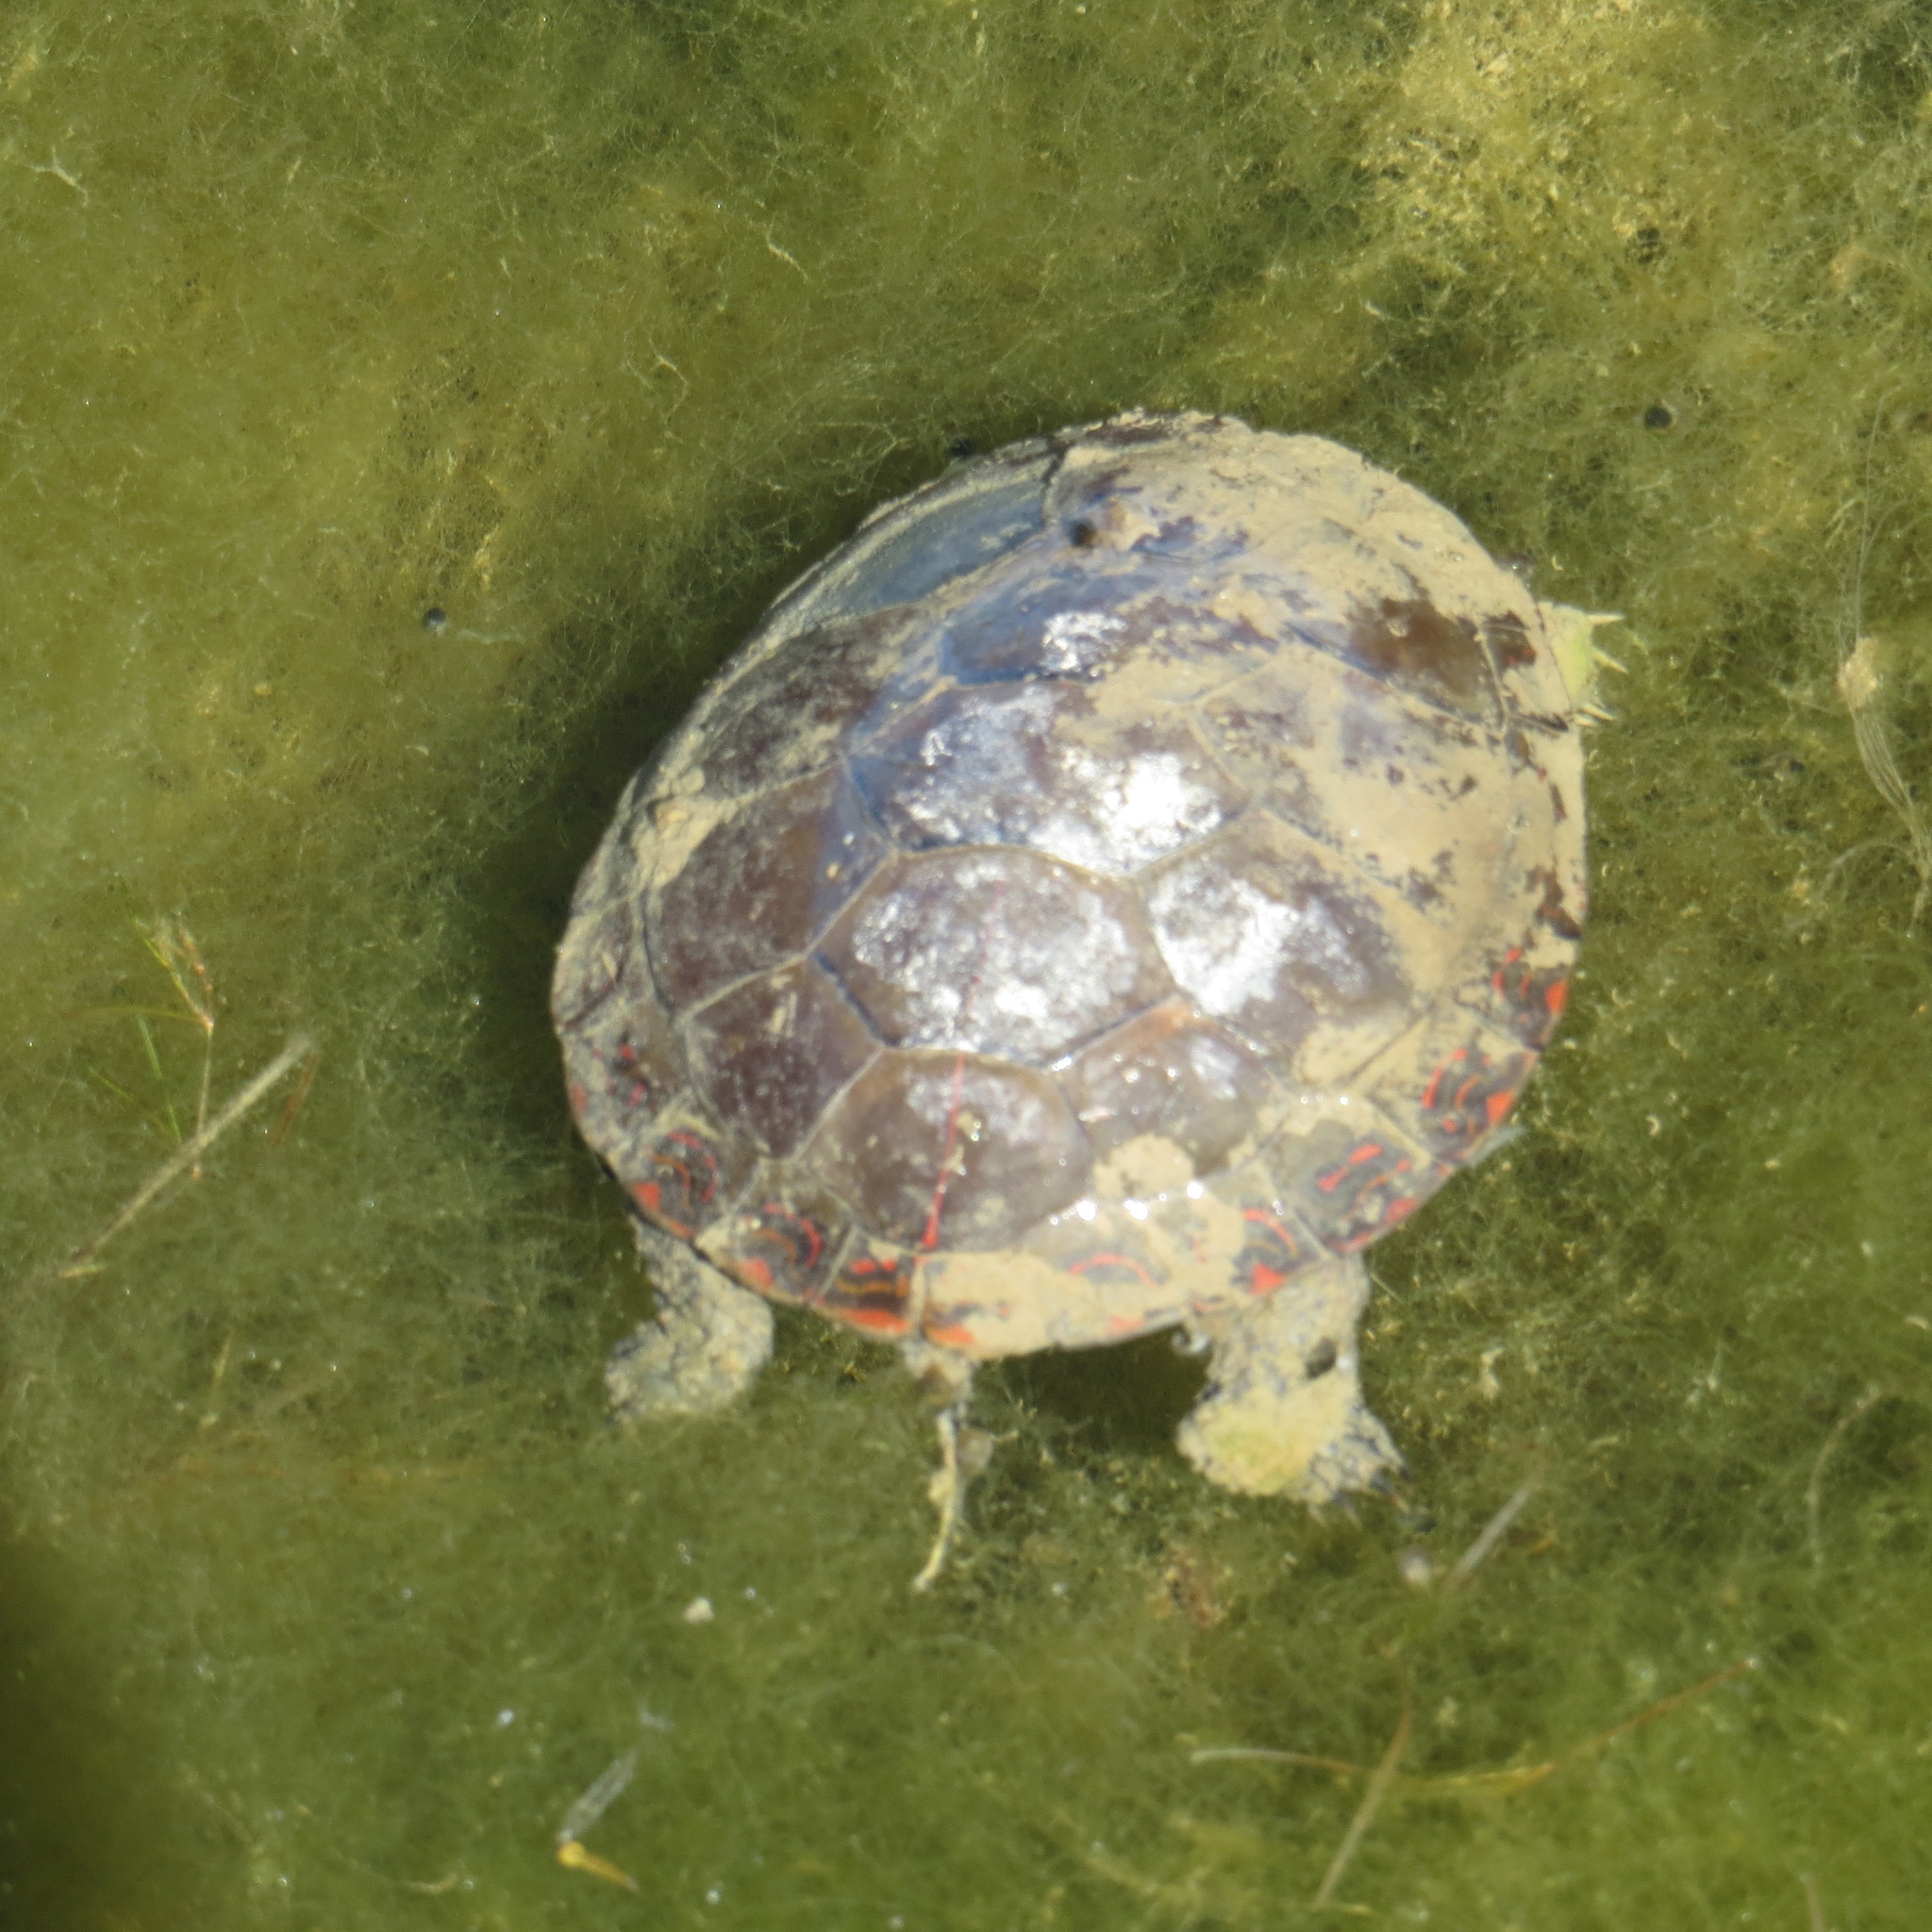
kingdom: Animalia
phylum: Chordata
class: Testudines
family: Emydidae
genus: Chrysemys
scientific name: Chrysemys picta
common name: Painted turtle
